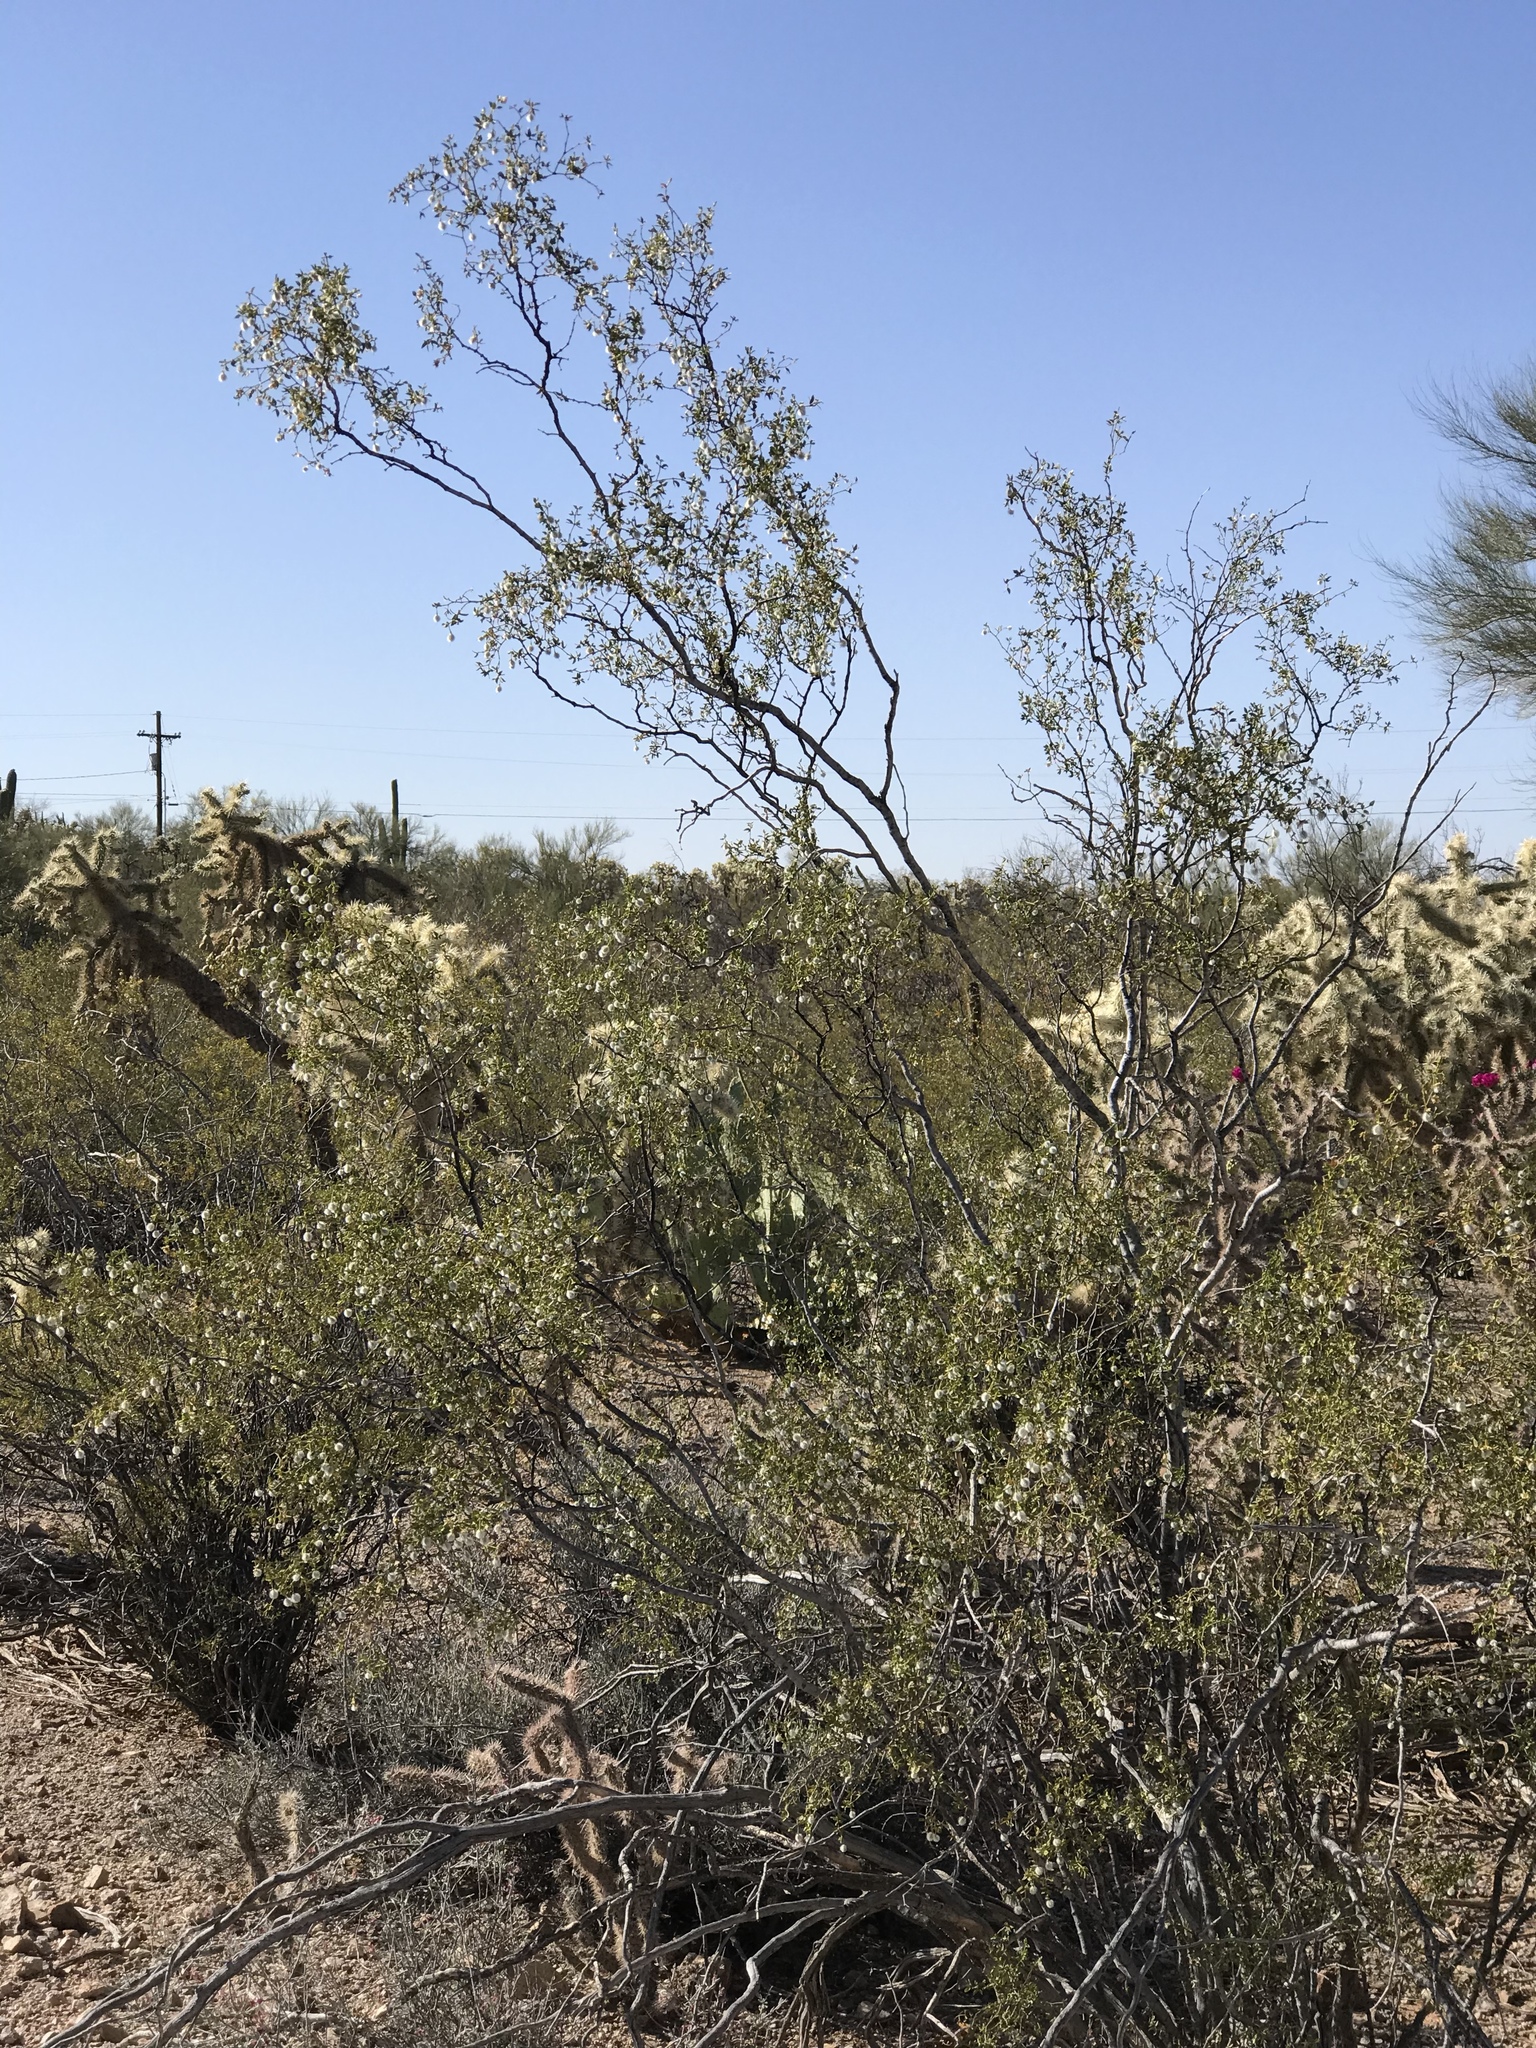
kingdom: Plantae
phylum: Tracheophyta
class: Magnoliopsida
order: Zygophyllales
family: Zygophyllaceae
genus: Larrea
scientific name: Larrea tridentata
